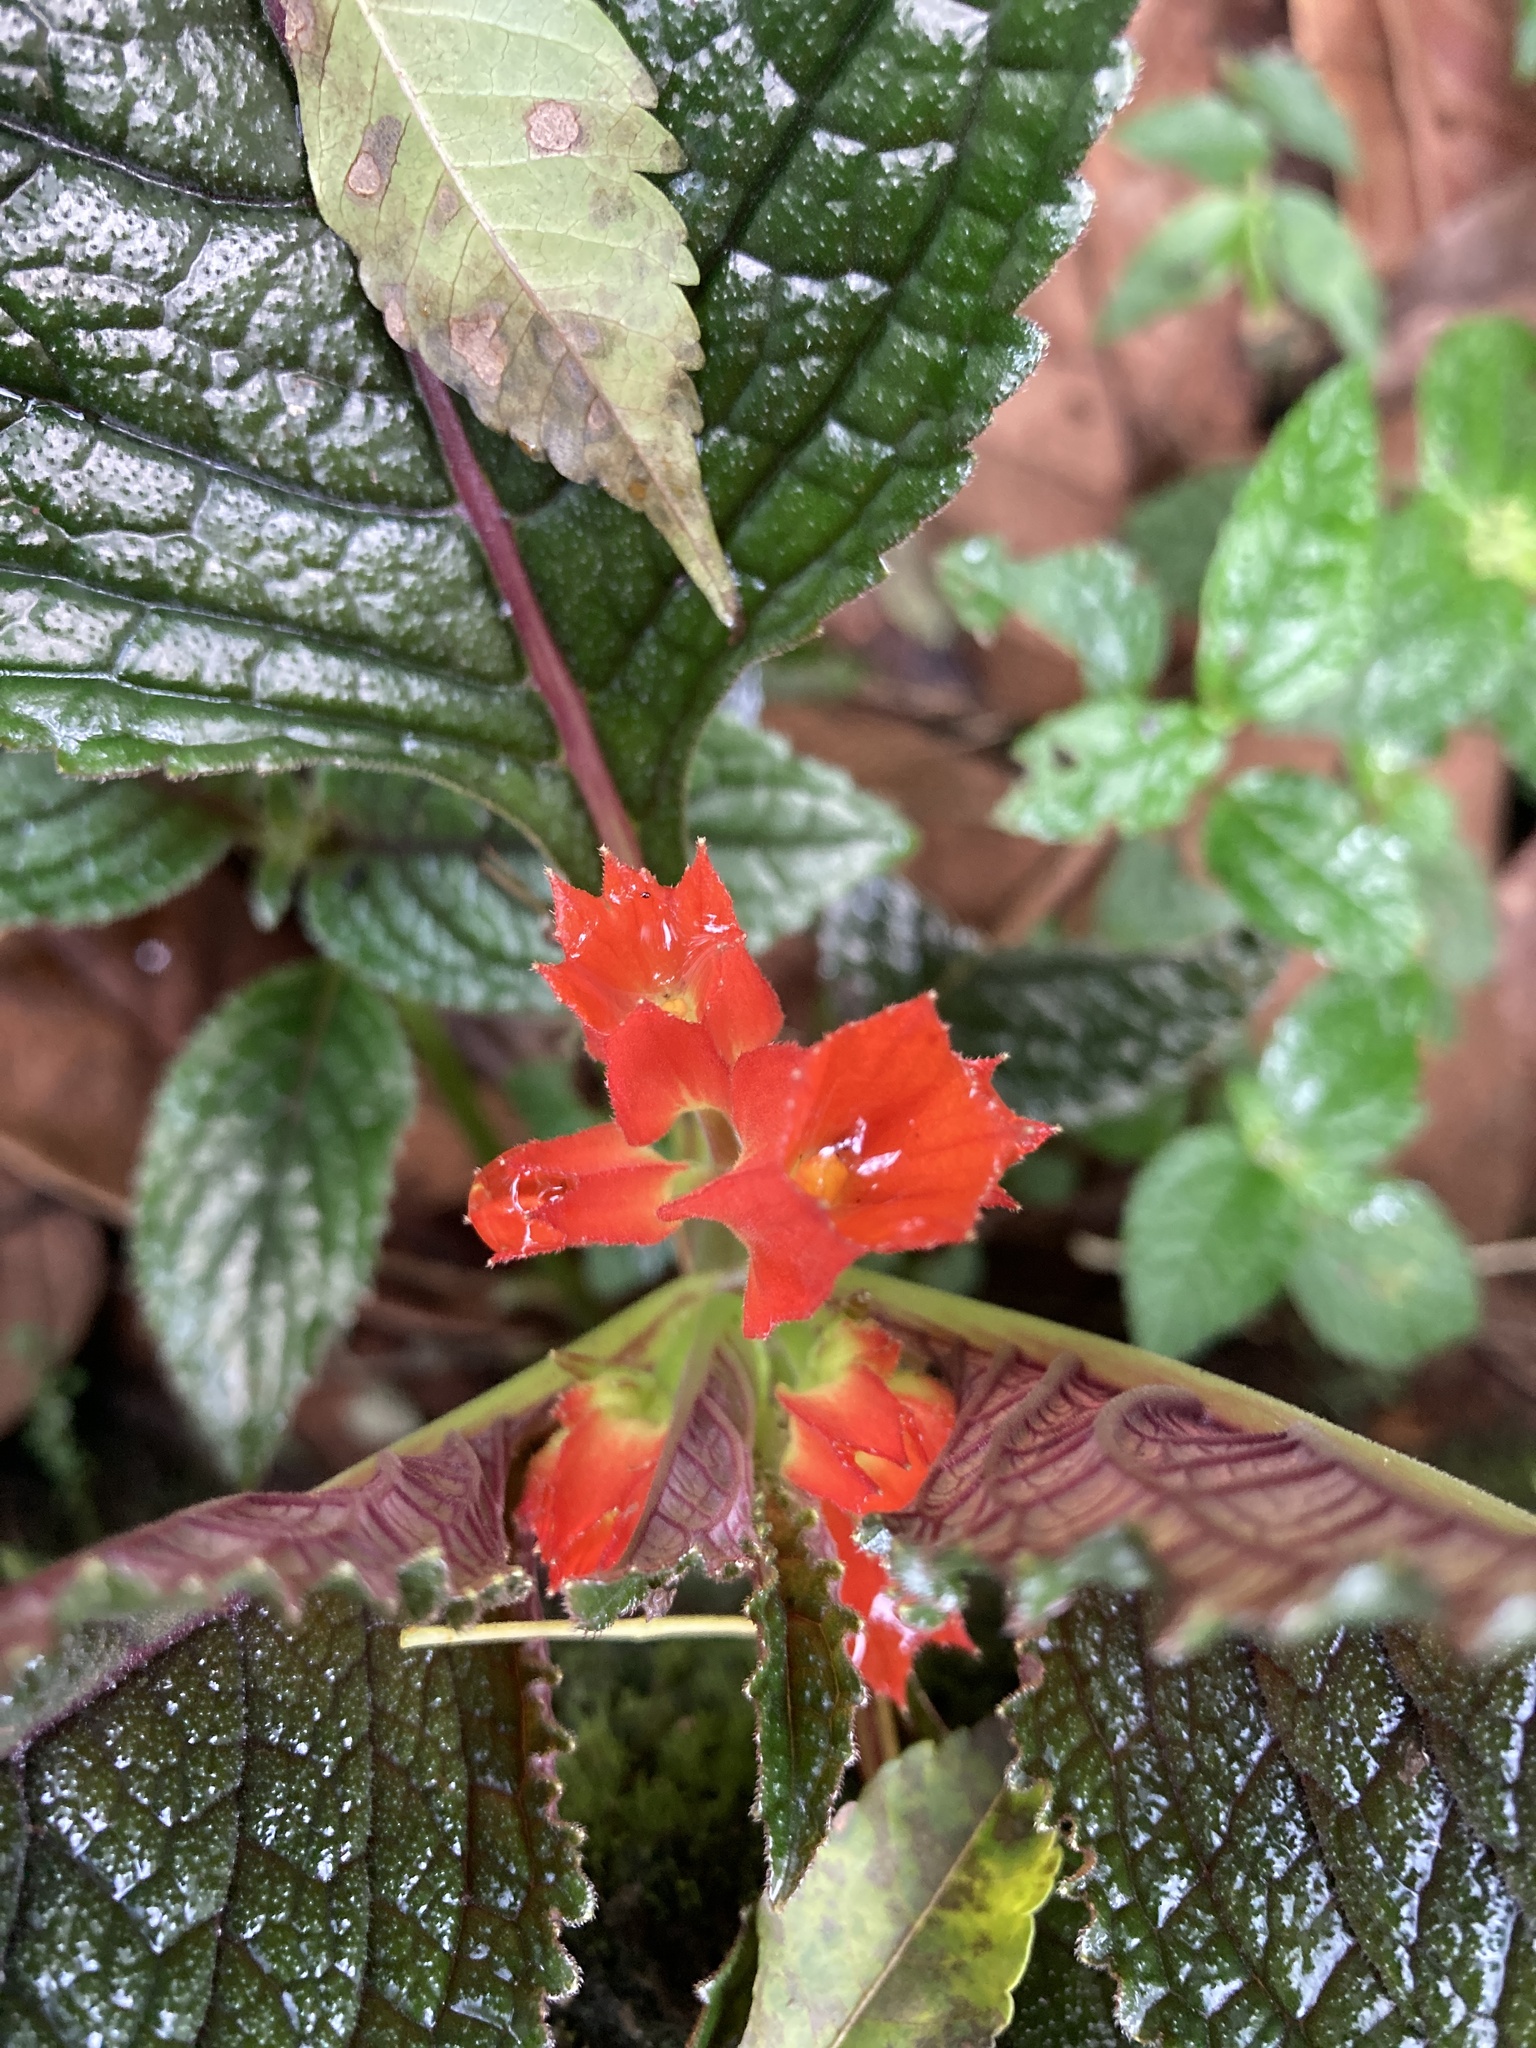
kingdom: Plantae
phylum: Tracheophyta
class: Magnoliopsida
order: Lamiales
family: Gesneriaceae
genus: Chrysothemis
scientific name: Chrysothemis pulchella
